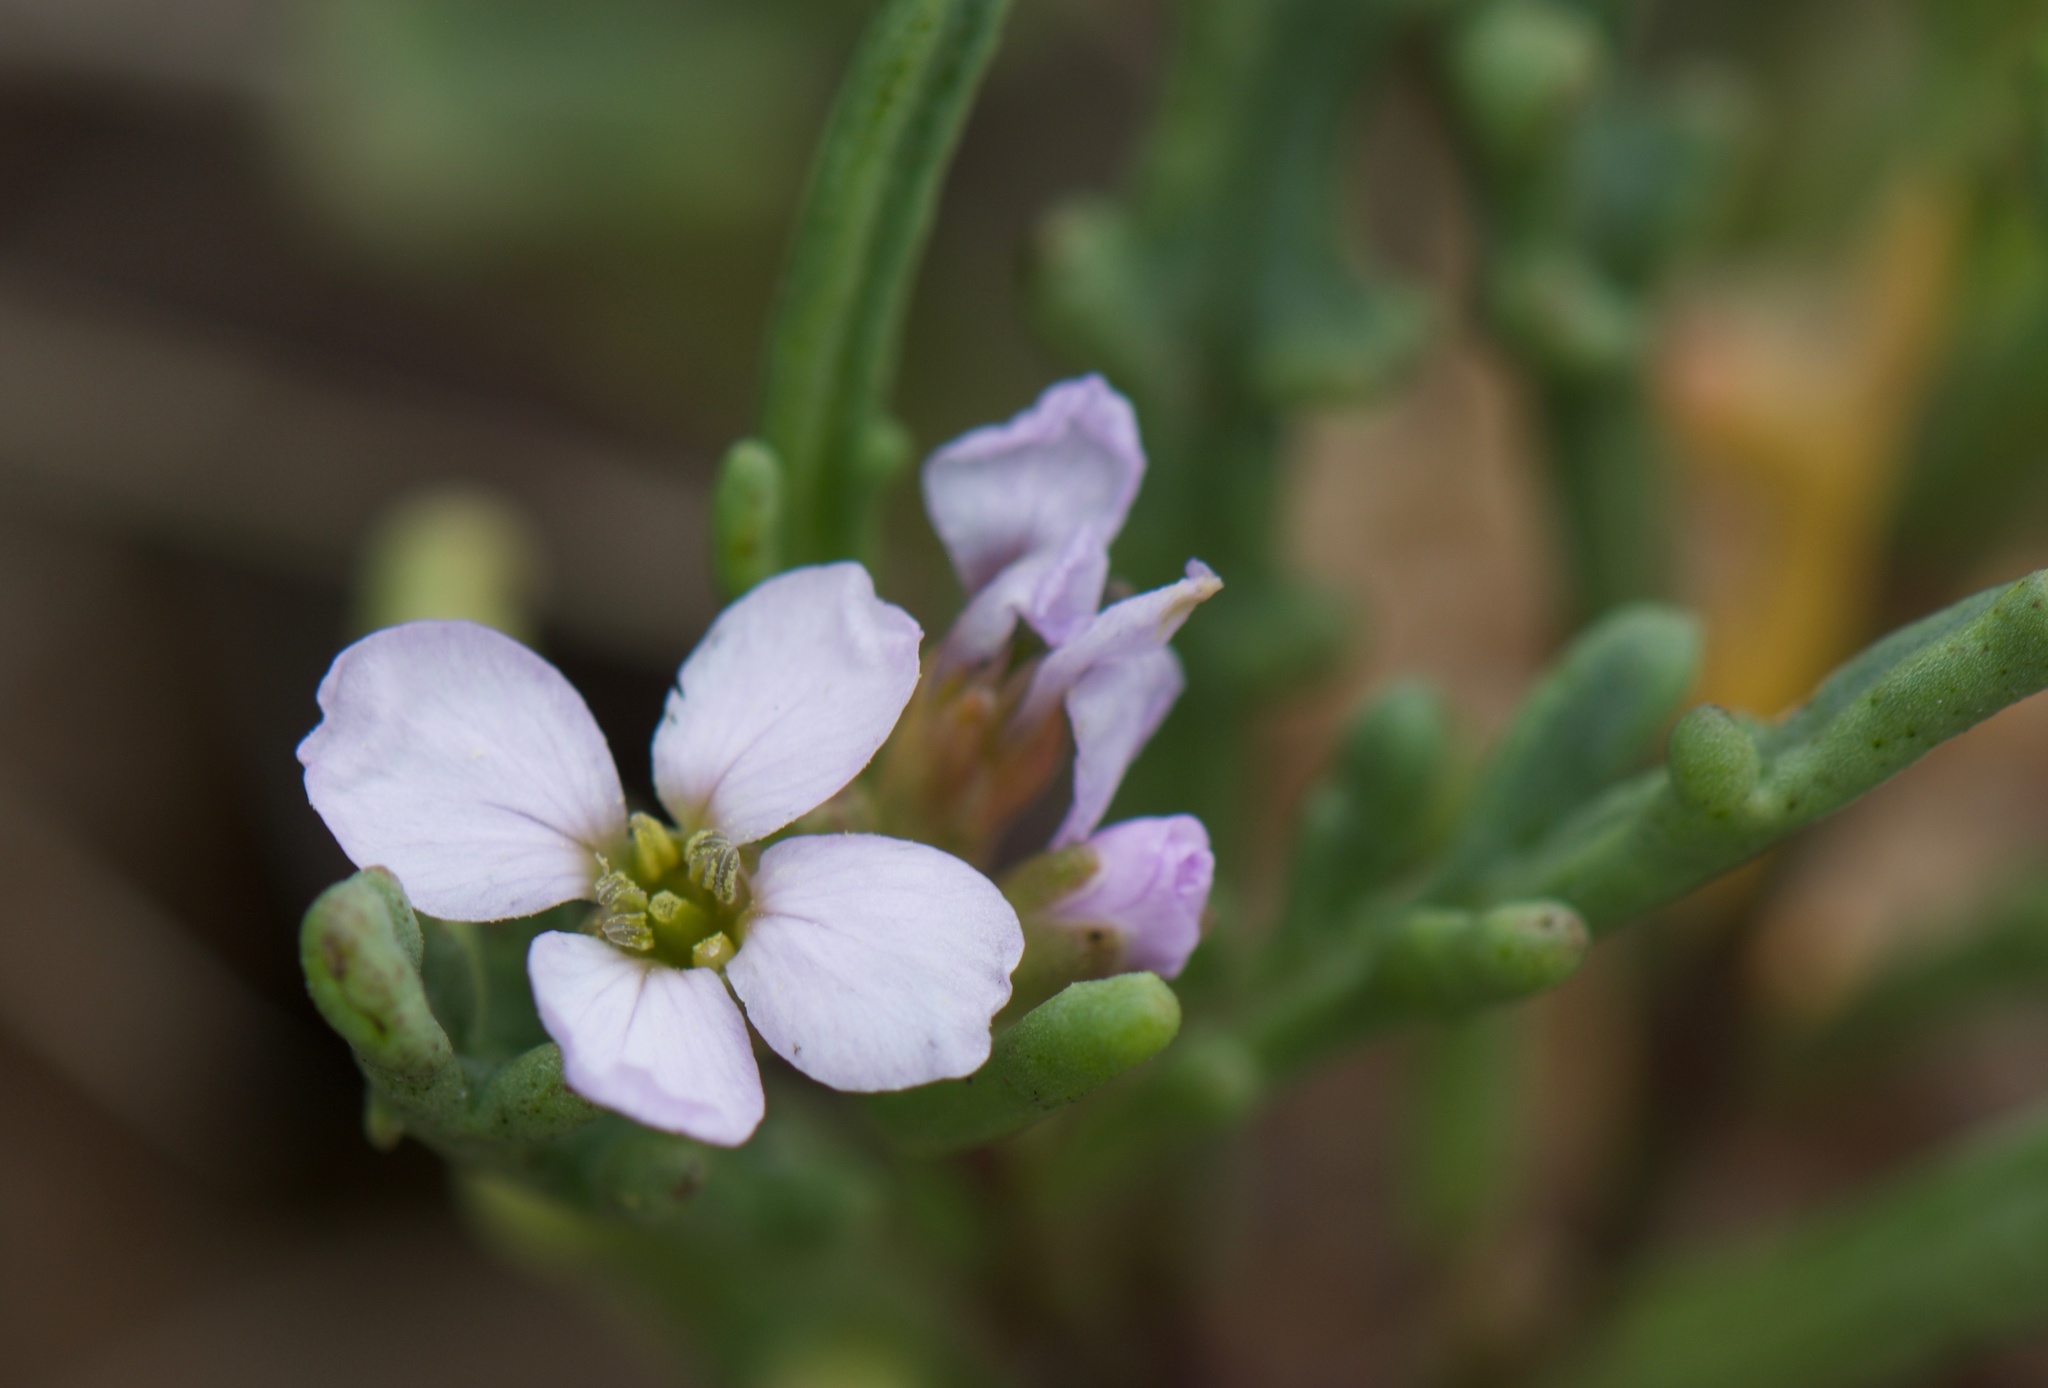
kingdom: Plantae
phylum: Tracheophyta
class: Magnoliopsida
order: Brassicales
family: Brassicaceae
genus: Cakile
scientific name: Cakile maritima
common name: Sea rocket
